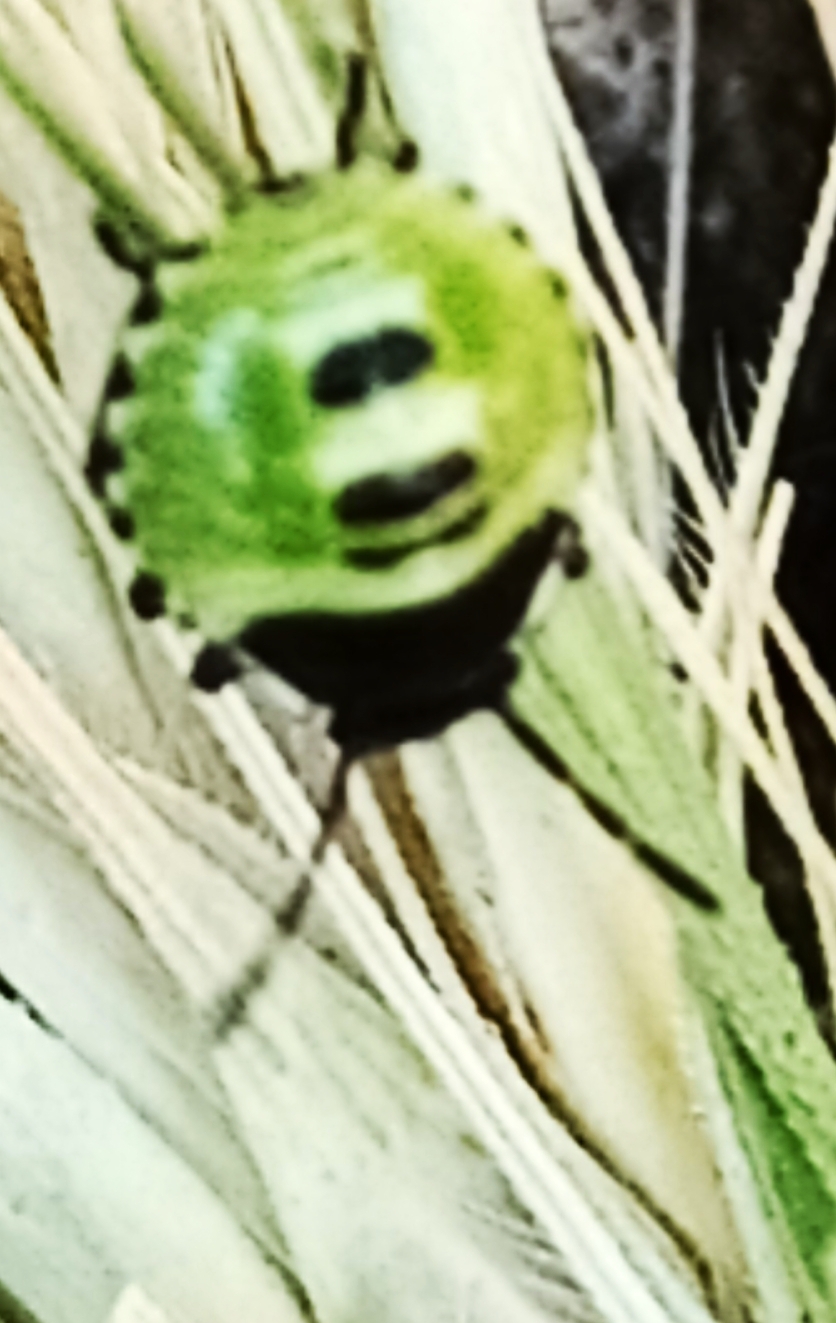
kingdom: Animalia
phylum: Arthropoda
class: Insecta
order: Hemiptera
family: Pentatomidae
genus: Palomena
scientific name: Palomena prasina
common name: Green shieldbug
